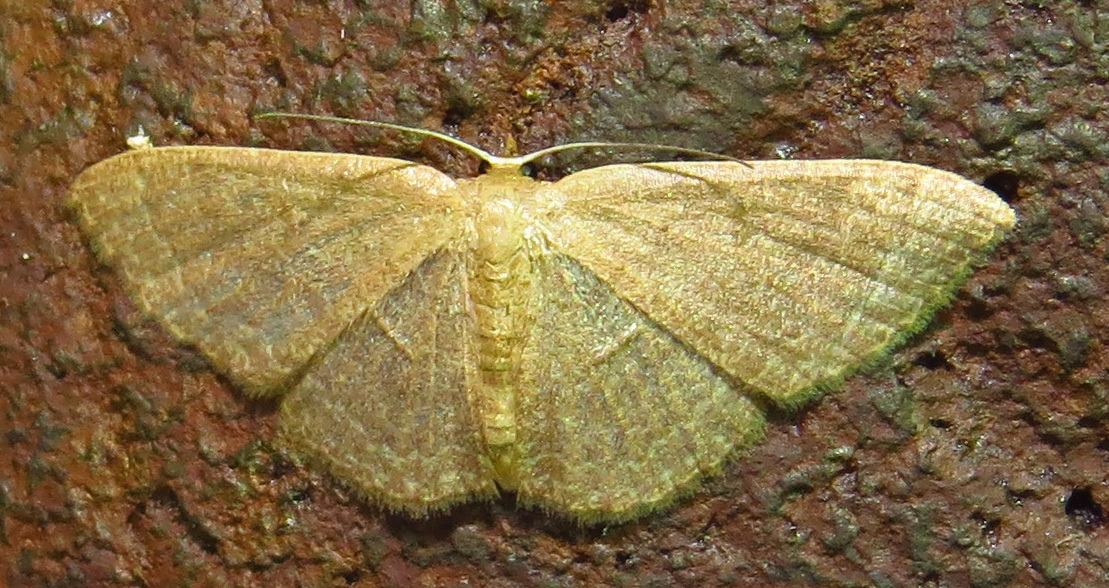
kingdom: Animalia
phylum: Arthropoda
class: Insecta
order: Lepidoptera
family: Geometridae
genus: Pleuroprucha
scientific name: Pleuroprucha insulsaria
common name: Common tan wave
